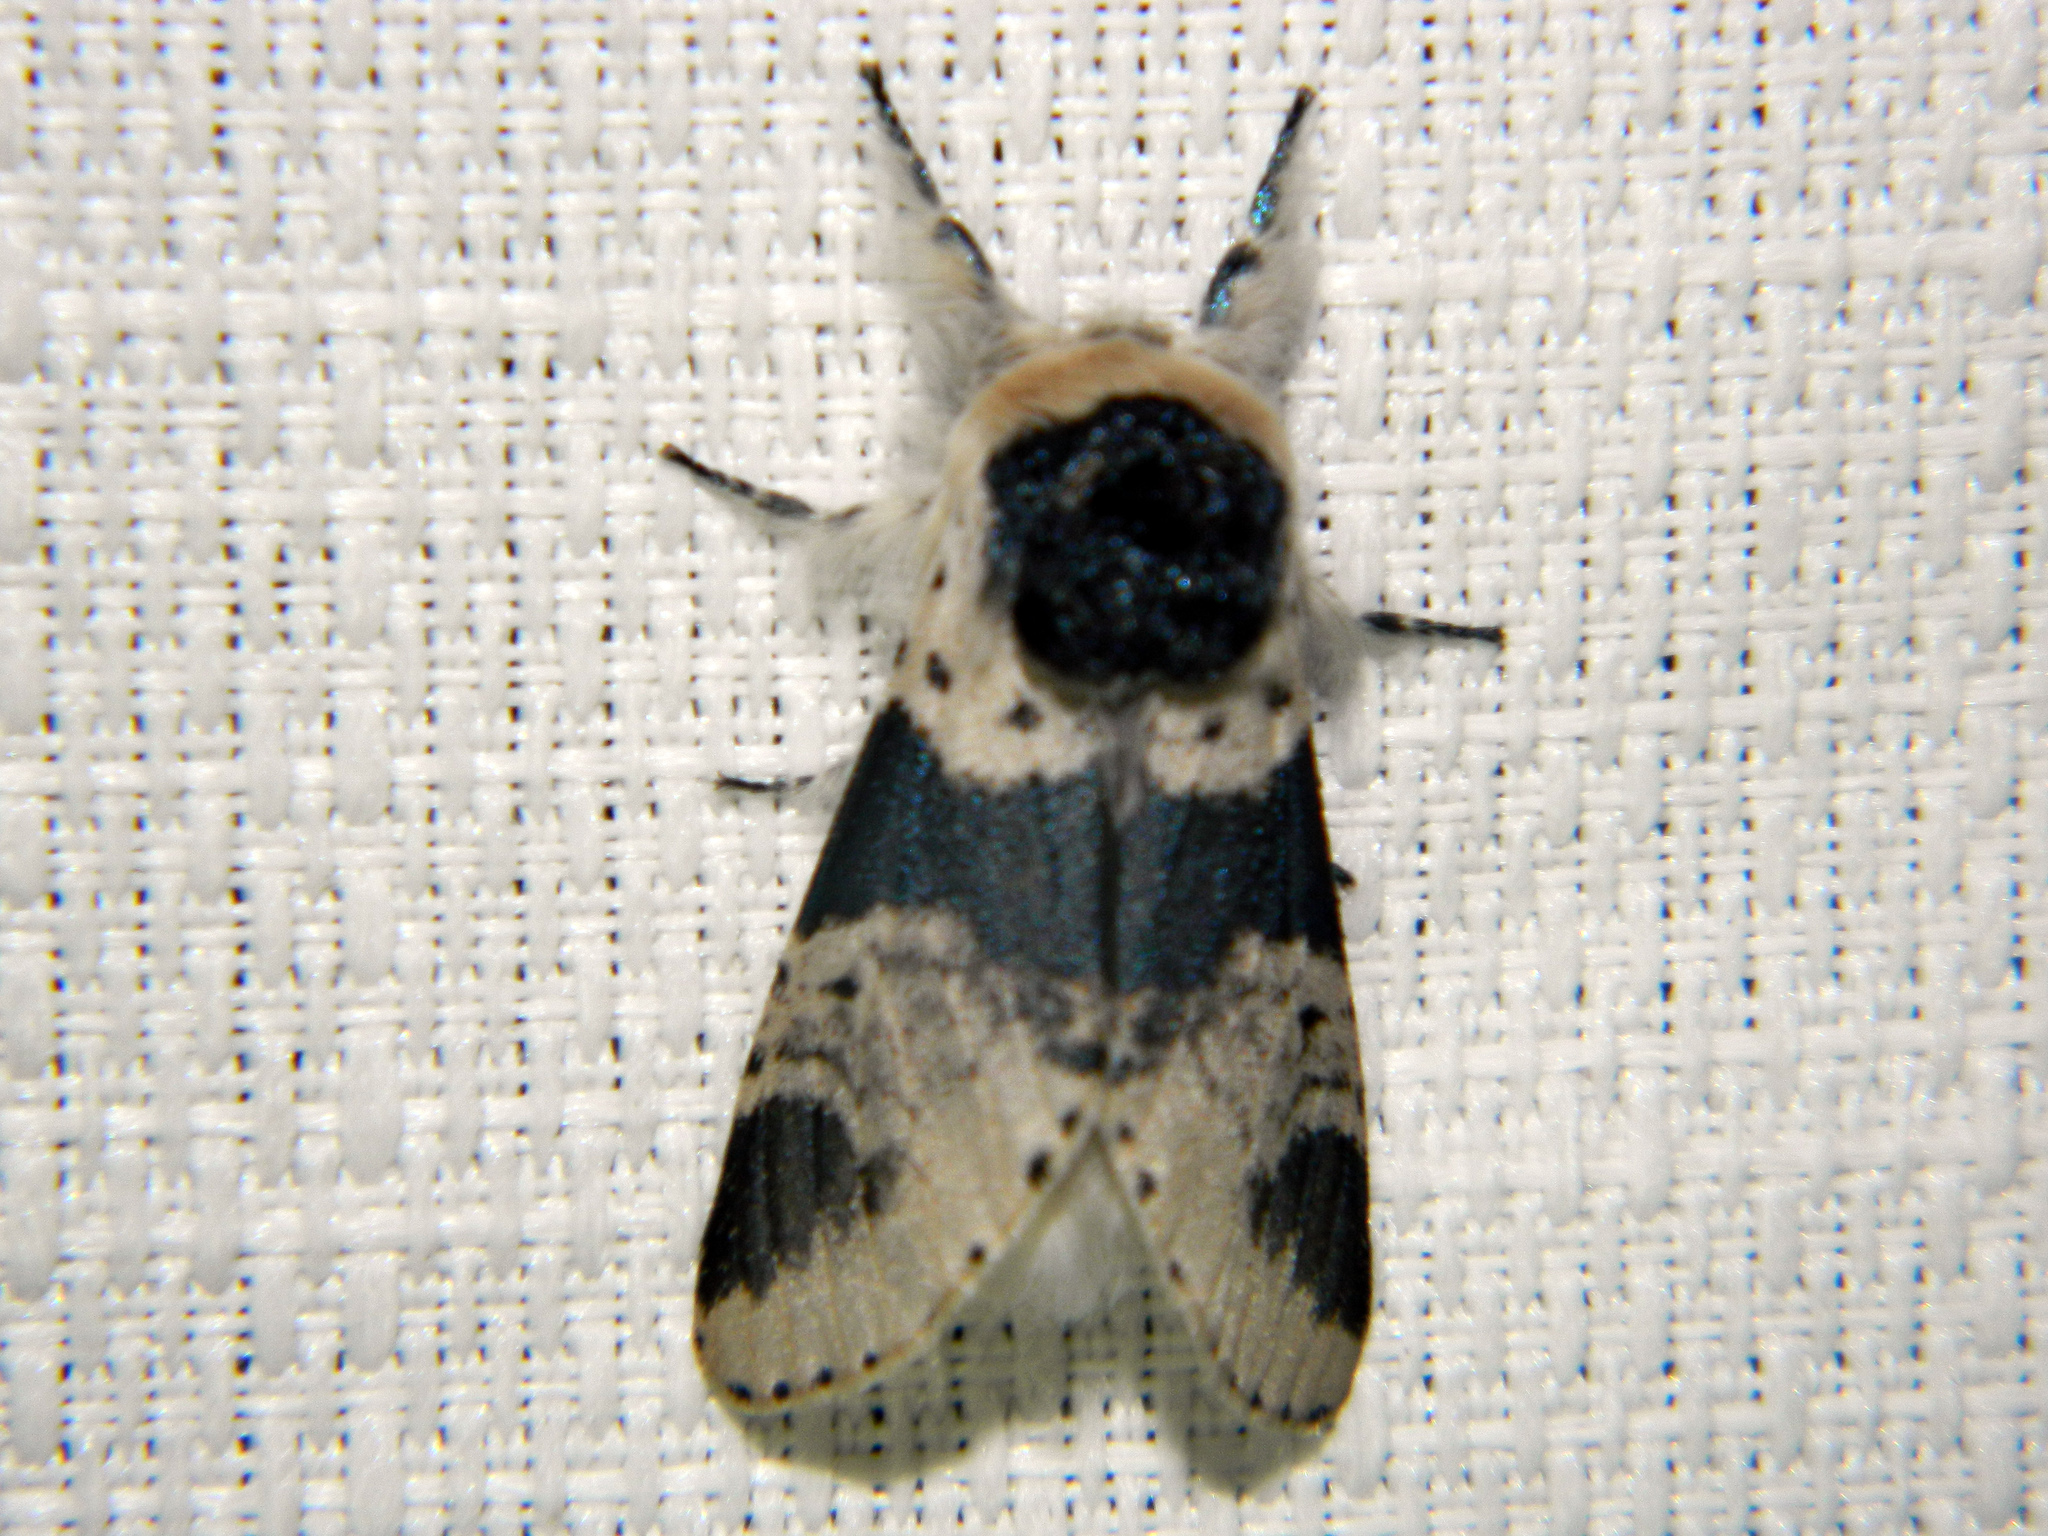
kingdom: Animalia
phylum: Arthropoda
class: Insecta
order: Lepidoptera
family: Notodontidae
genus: Furcula
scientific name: Furcula modesta
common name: Modest furcula moth
